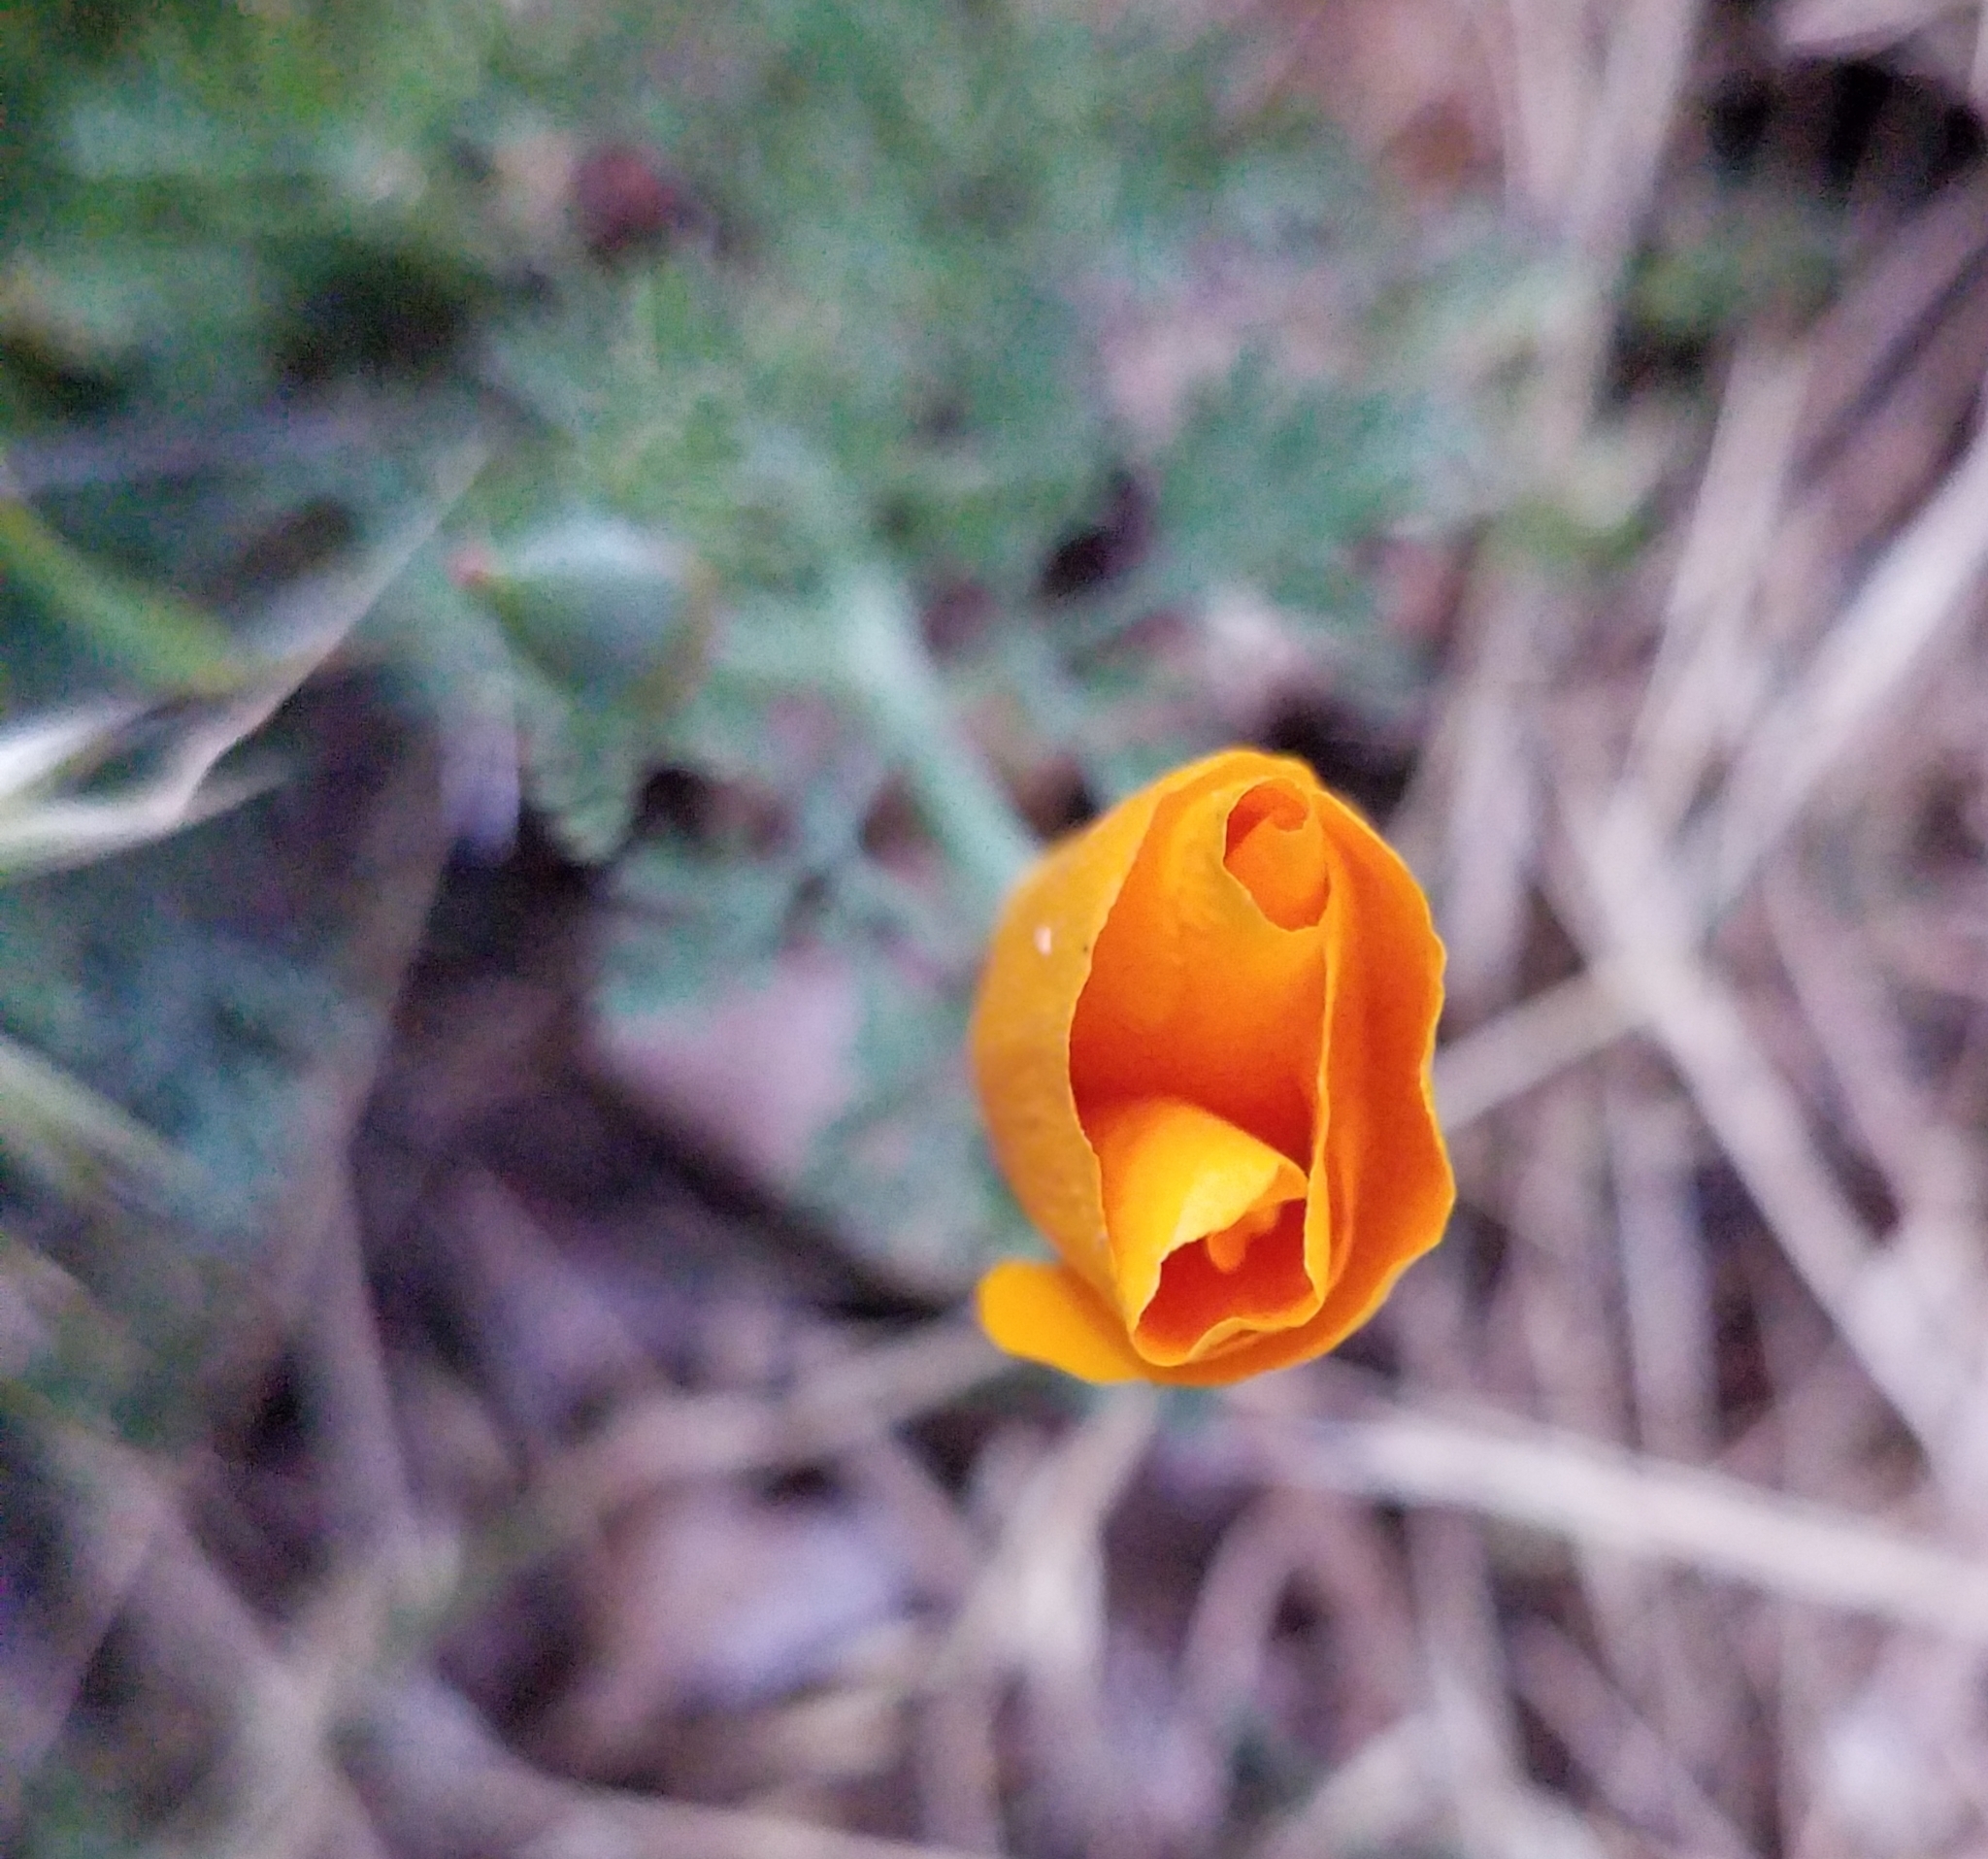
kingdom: Plantae
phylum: Tracheophyta
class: Magnoliopsida
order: Ranunculales
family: Papaveraceae
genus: Eschscholzia
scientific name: Eschscholzia californica
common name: California poppy
